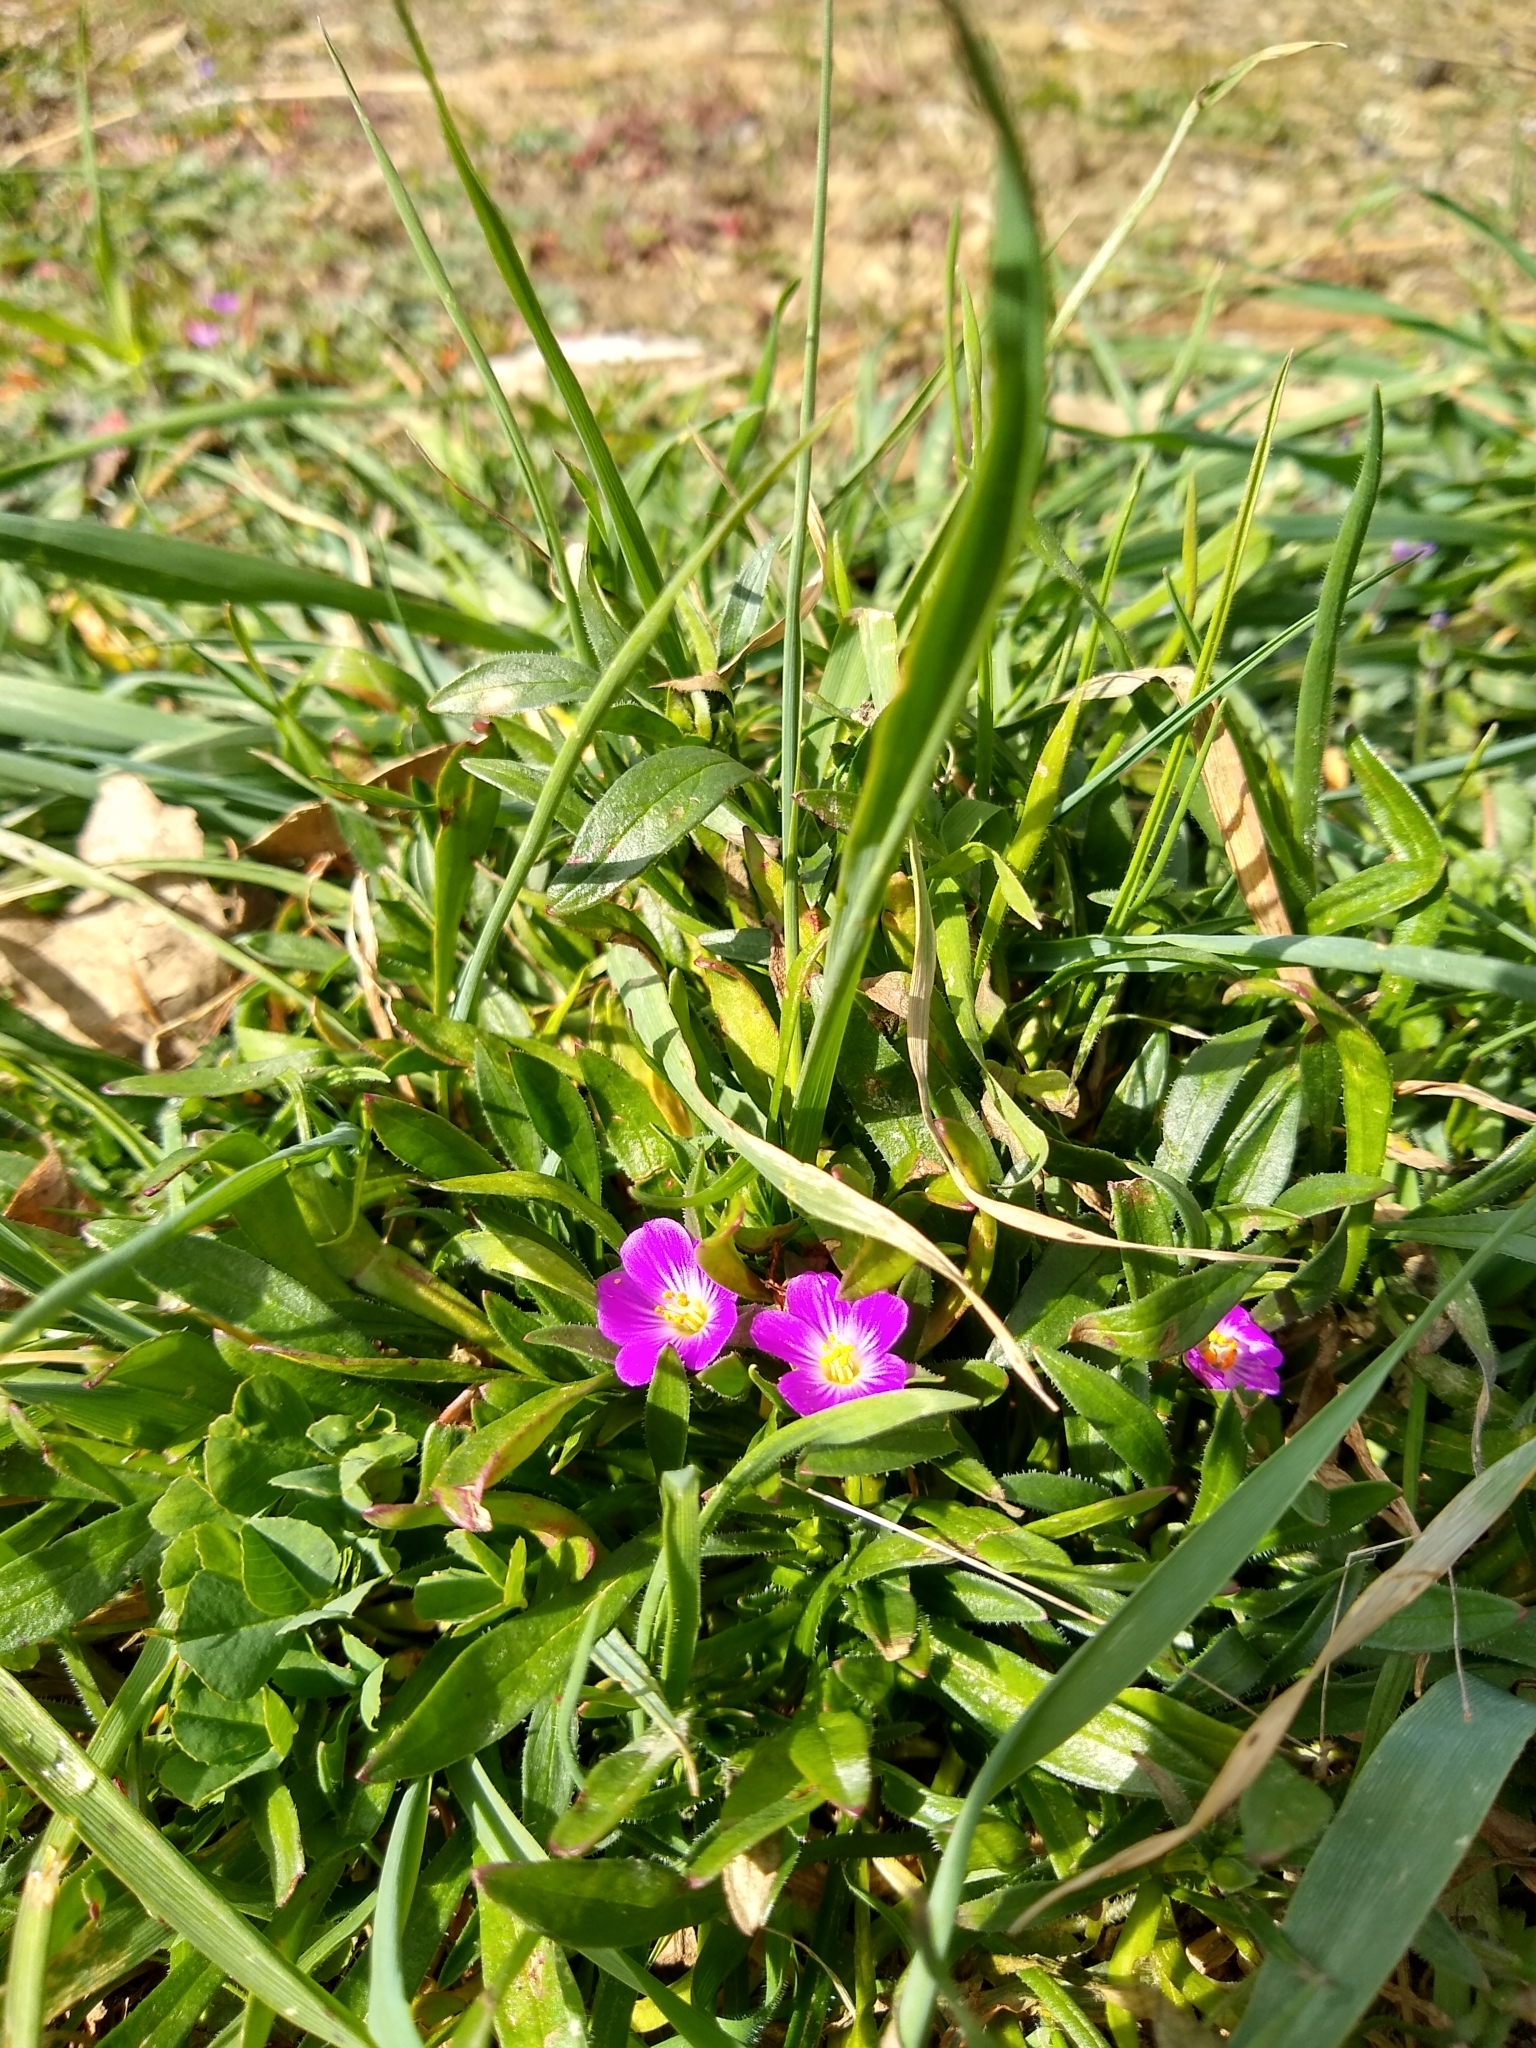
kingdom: Plantae
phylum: Tracheophyta
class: Magnoliopsida
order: Caryophyllales
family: Montiaceae
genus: Calandrinia
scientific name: Calandrinia menziesii
